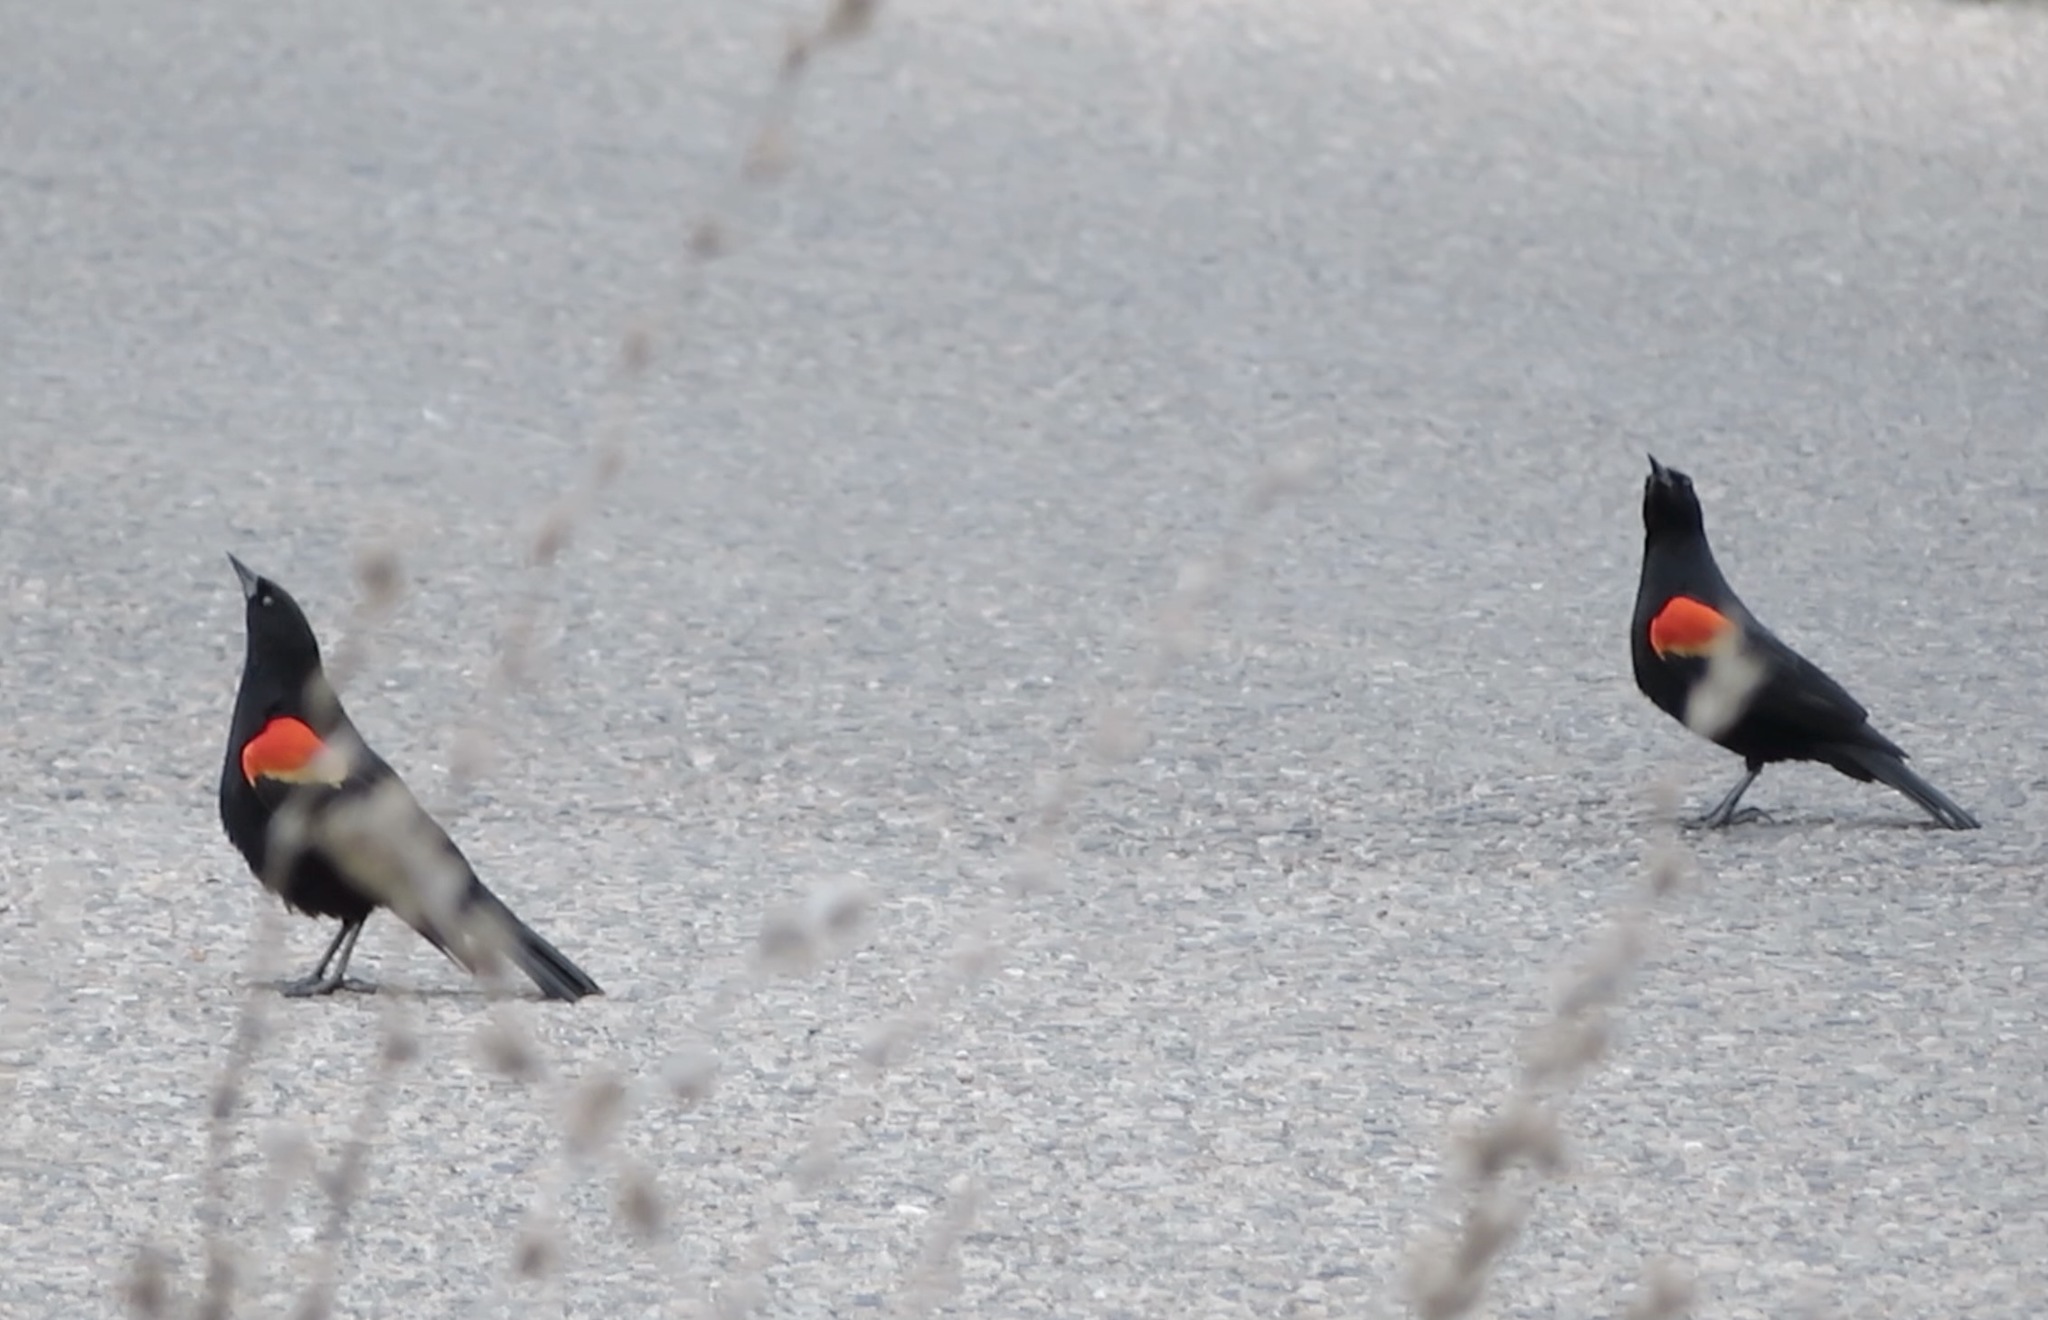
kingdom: Animalia
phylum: Chordata
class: Aves
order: Passeriformes
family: Icteridae
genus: Agelaius
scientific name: Agelaius phoeniceus
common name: Red-winged blackbird
